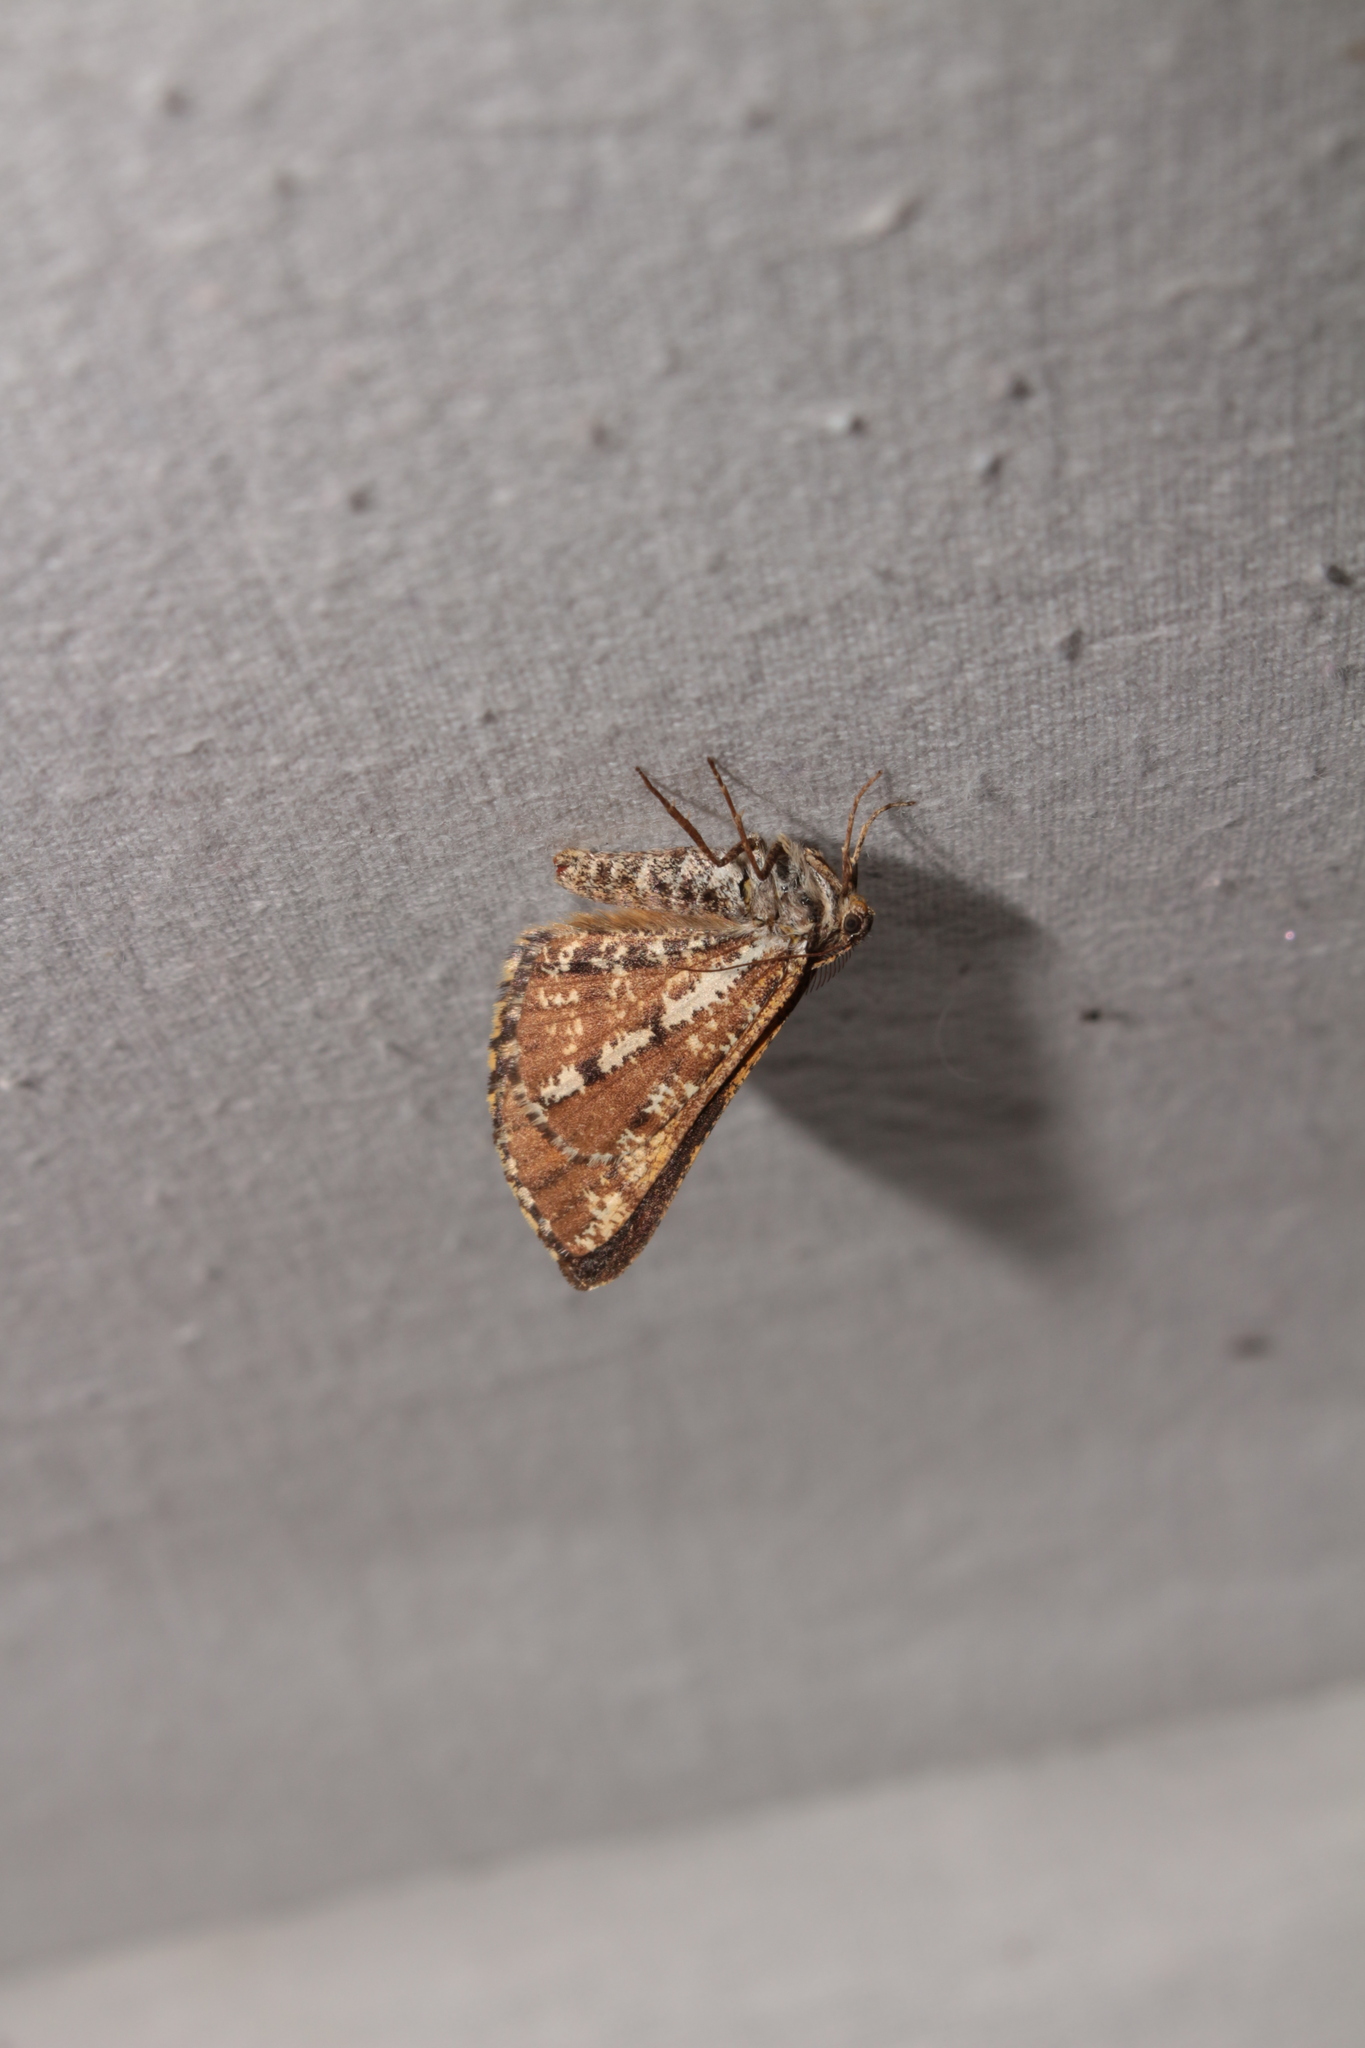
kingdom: Animalia
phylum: Arthropoda
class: Insecta
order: Lepidoptera
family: Geometridae
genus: Bupalus
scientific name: Bupalus piniaria
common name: Bordered white
